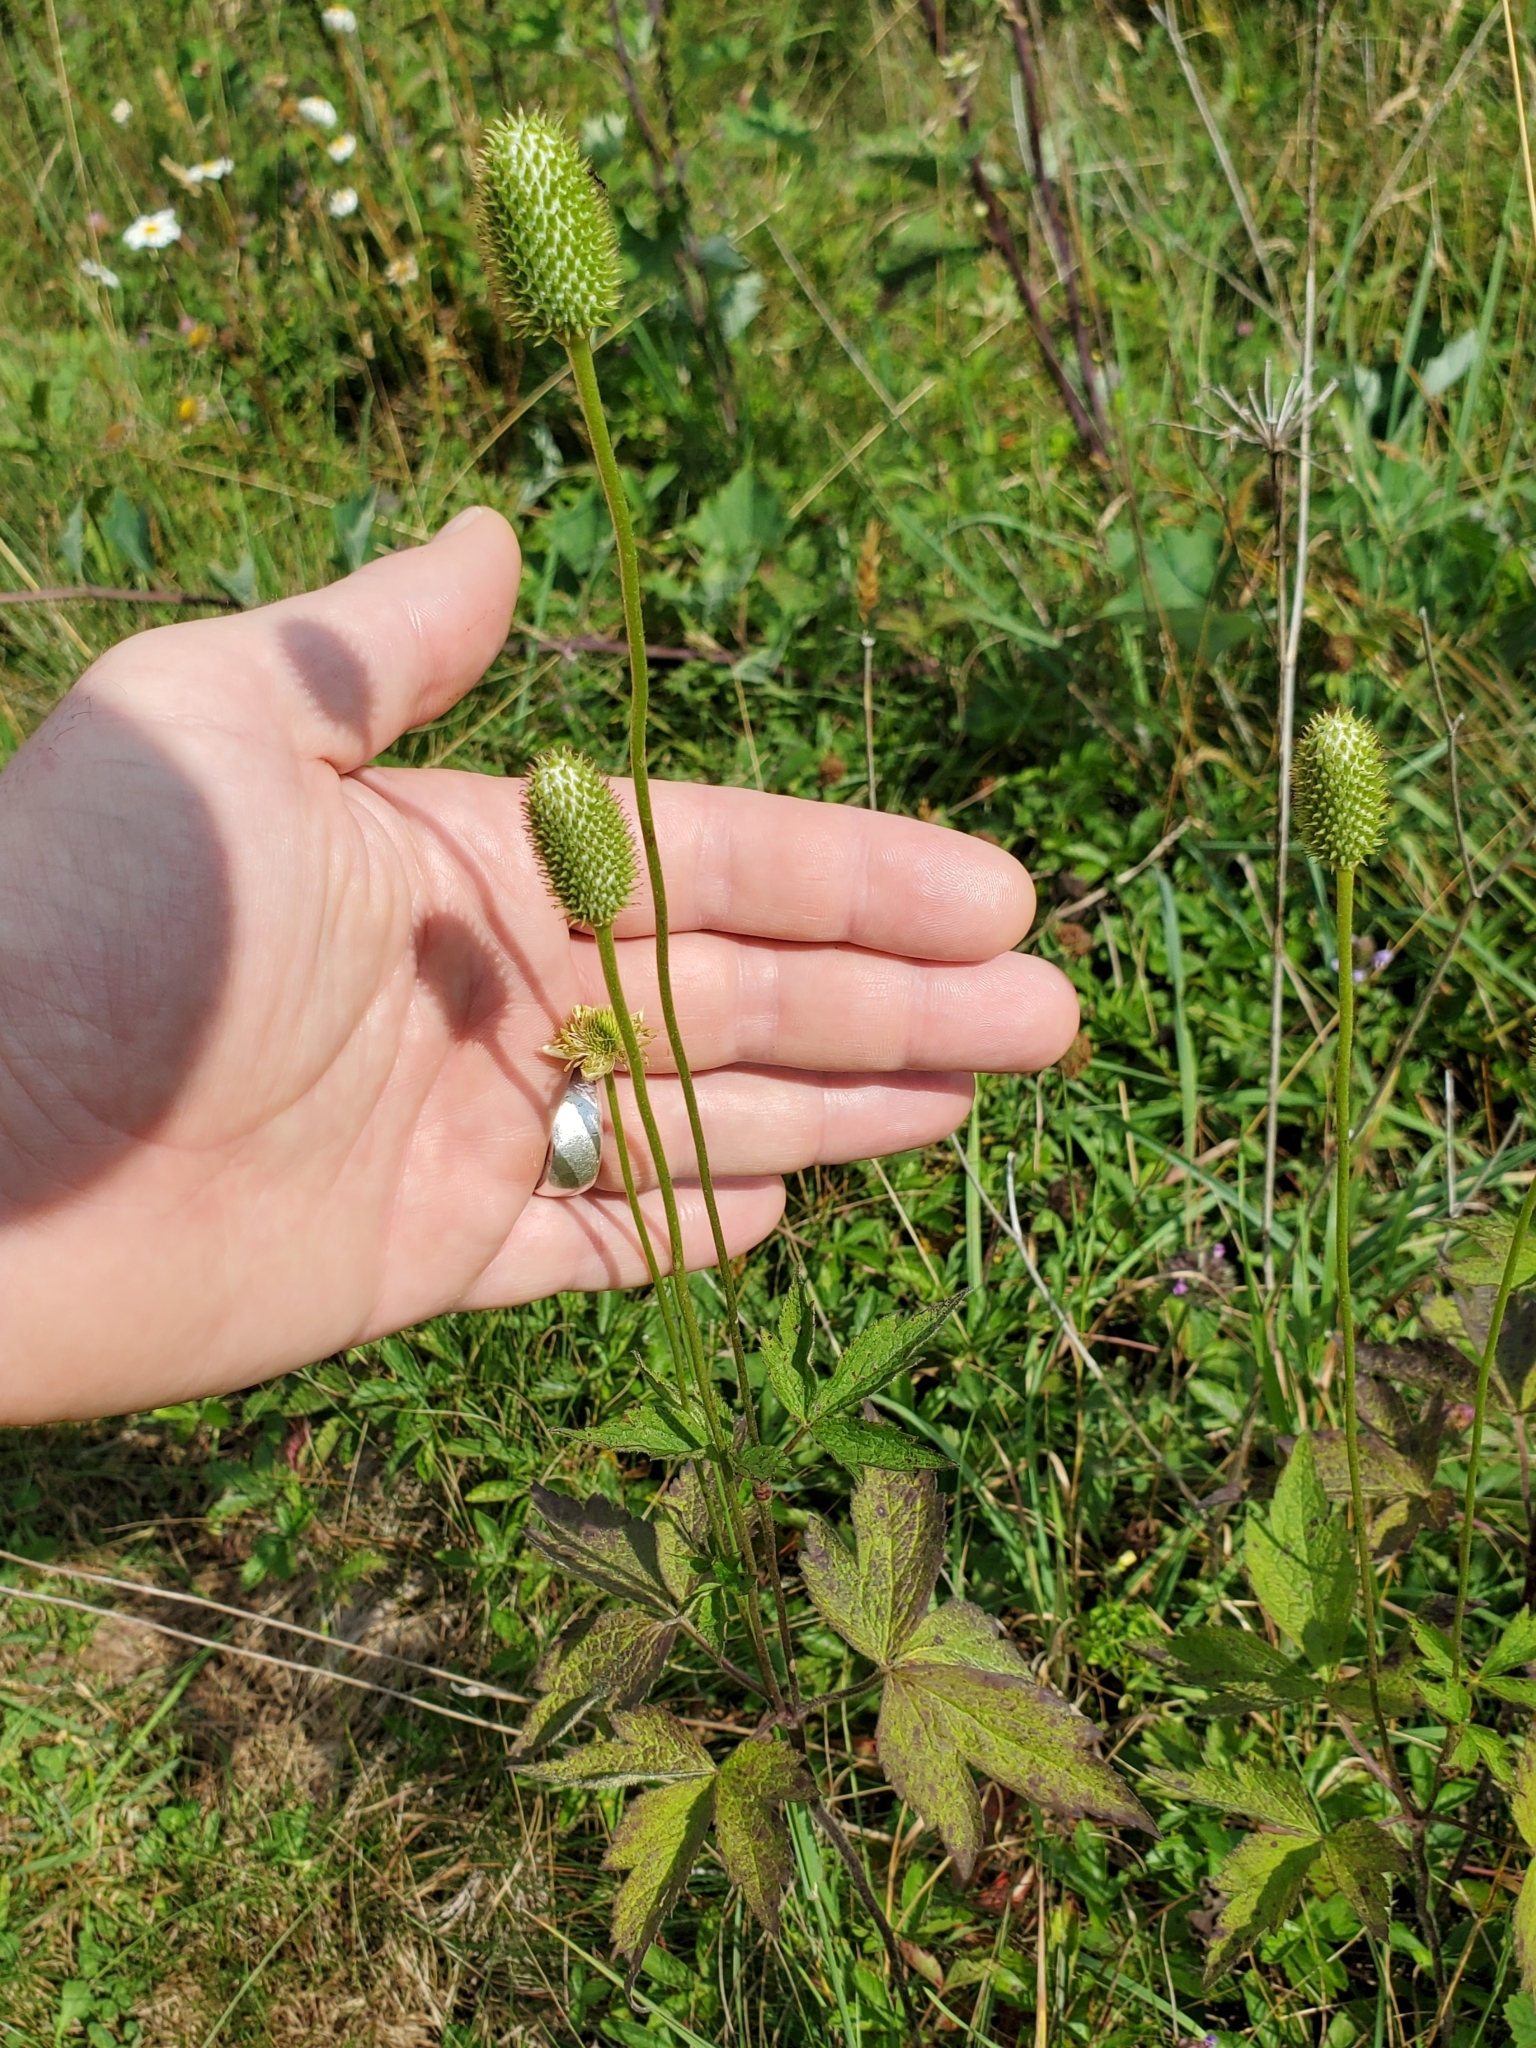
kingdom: Plantae
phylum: Tracheophyta
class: Magnoliopsida
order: Ranunculales
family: Ranunculaceae
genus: Anemone
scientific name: Anemone virginiana
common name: Tall anemone
